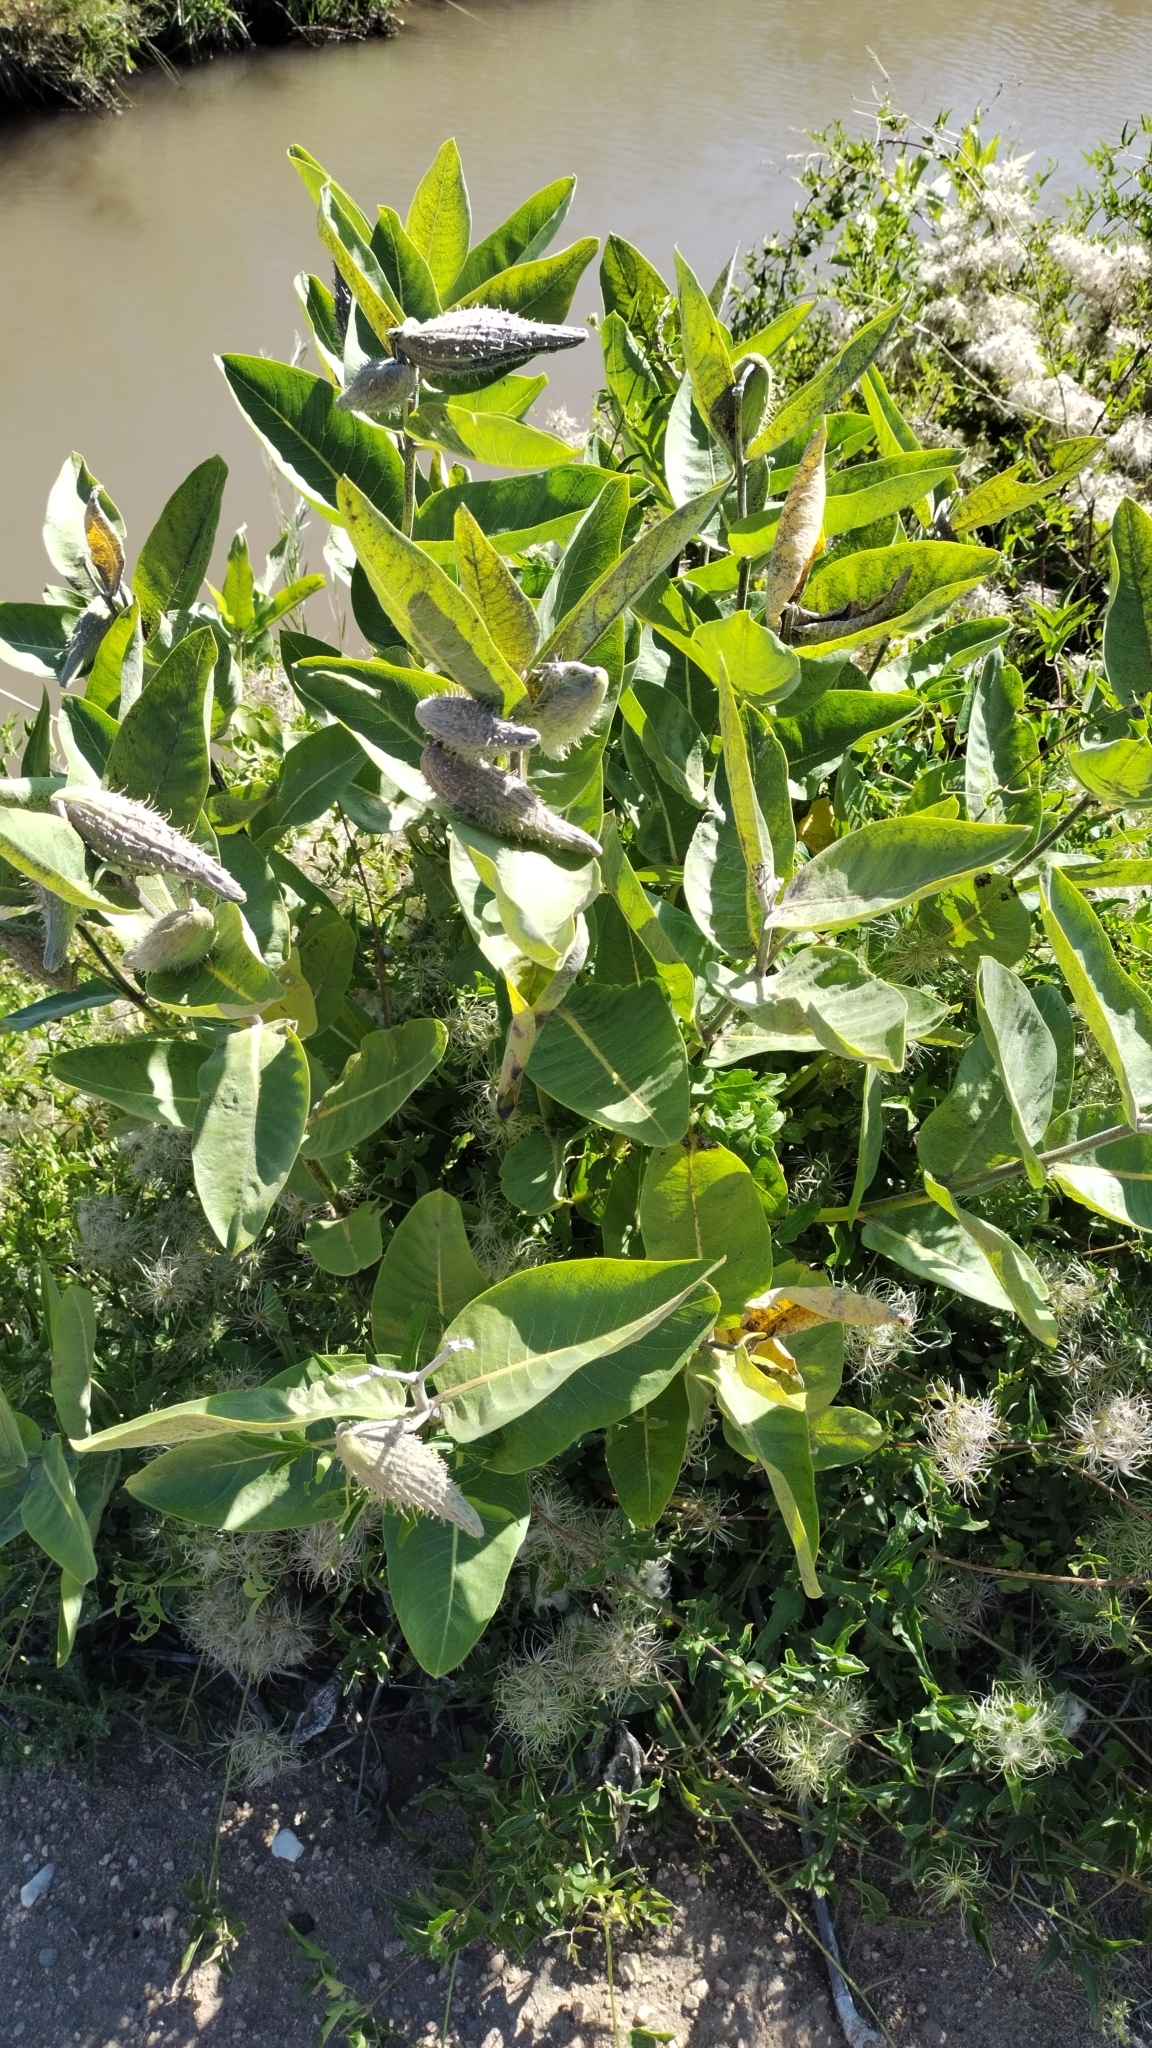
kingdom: Plantae
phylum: Tracheophyta
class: Magnoliopsida
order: Gentianales
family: Apocynaceae
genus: Asclepias
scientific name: Asclepias speciosa
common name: Showy milkweed
